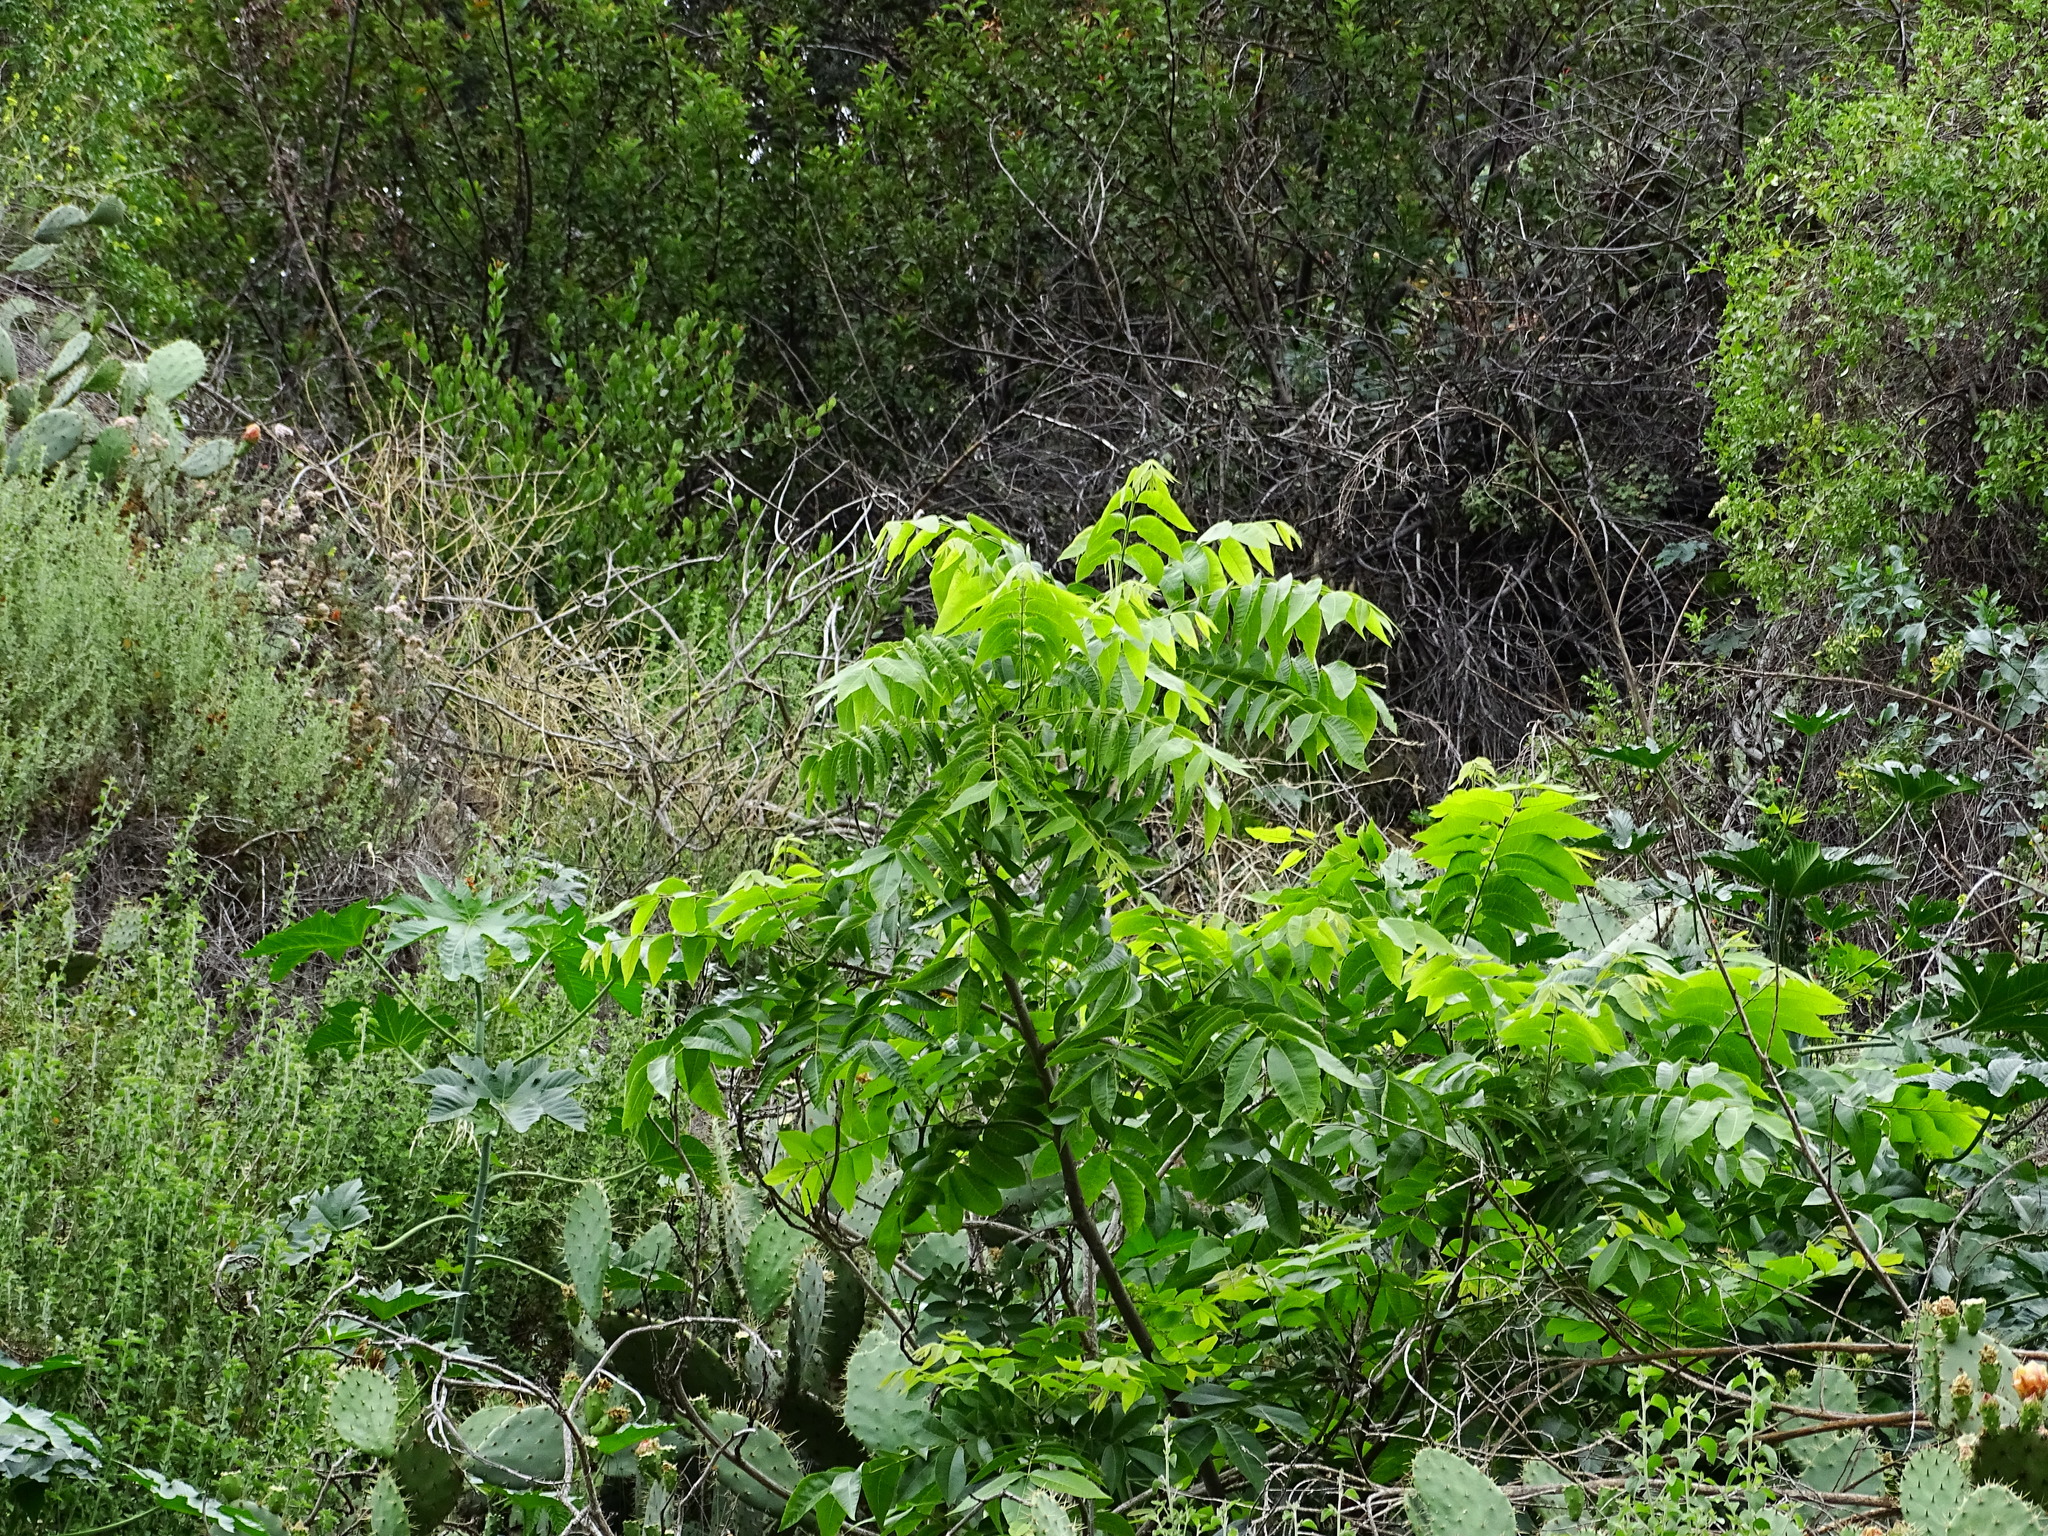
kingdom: Plantae
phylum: Tracheophyta
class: Magnoliopsida
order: Sapindales
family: Simaroubaceae
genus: Ailanthus
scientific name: Ailanthus altissima
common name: Tree-of-heaven
